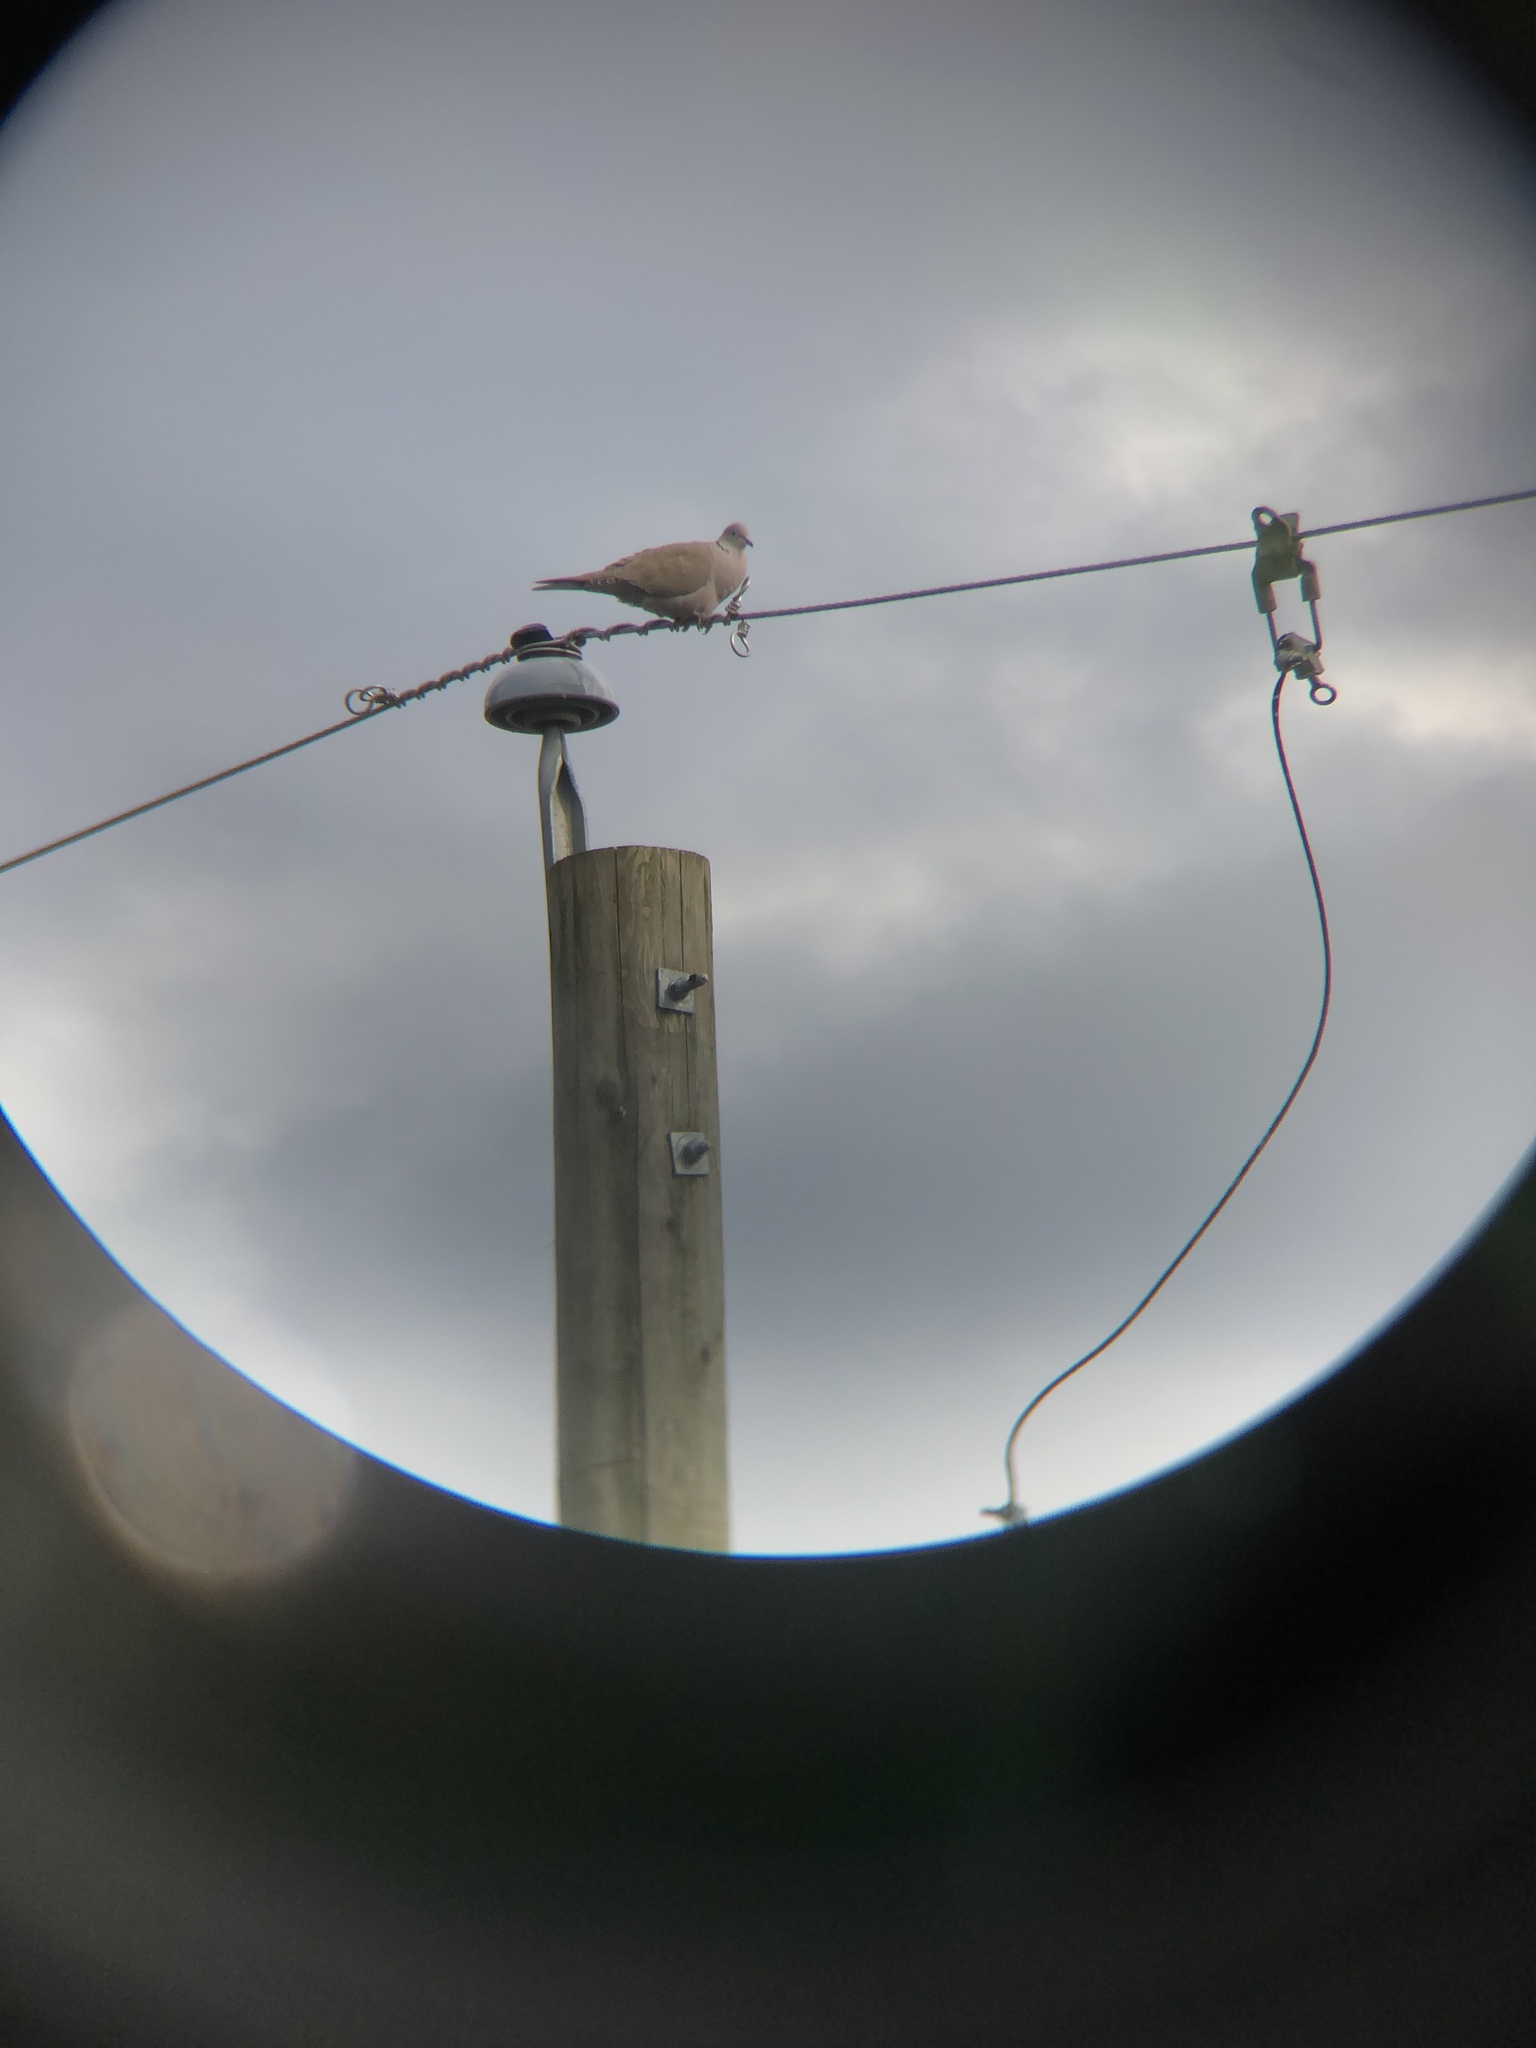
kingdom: Animalia
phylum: Chordata
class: Aves
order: Columbiformes
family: Columbidae
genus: Streptopelia
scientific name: Streptopelia decaocto
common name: Eurasian collared dove
